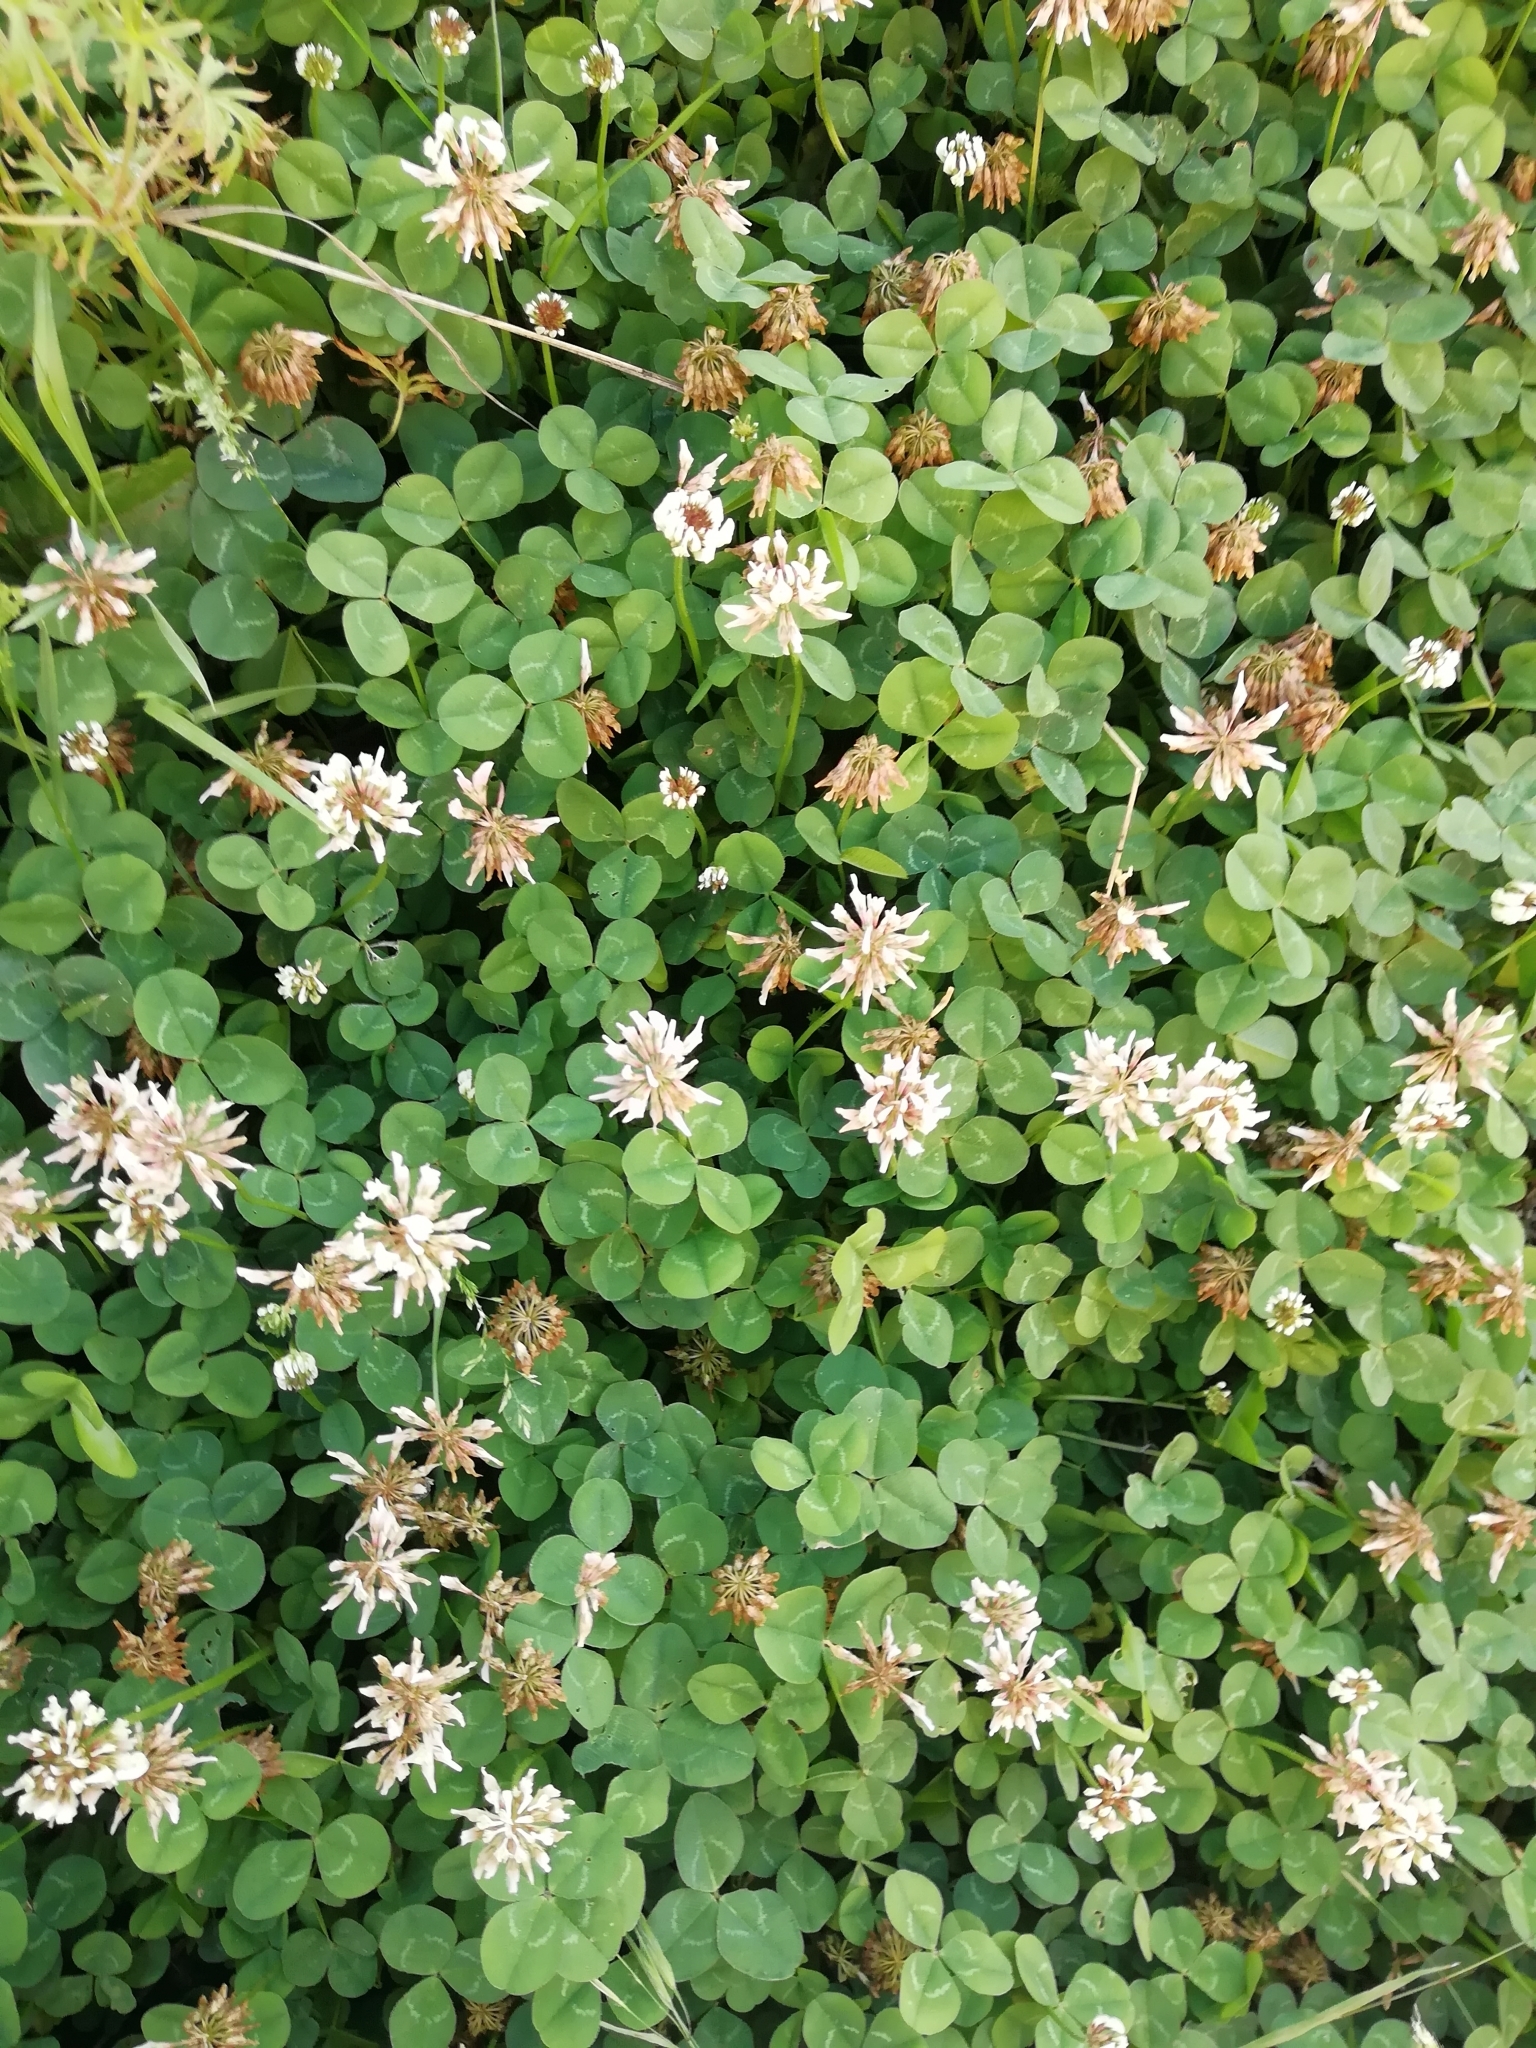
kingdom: Plantae
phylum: Tracheophyta
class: Magnoliopsida
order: Fabales
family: Fabaceae
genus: Trifolium
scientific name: Trifolium repens
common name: White clover
